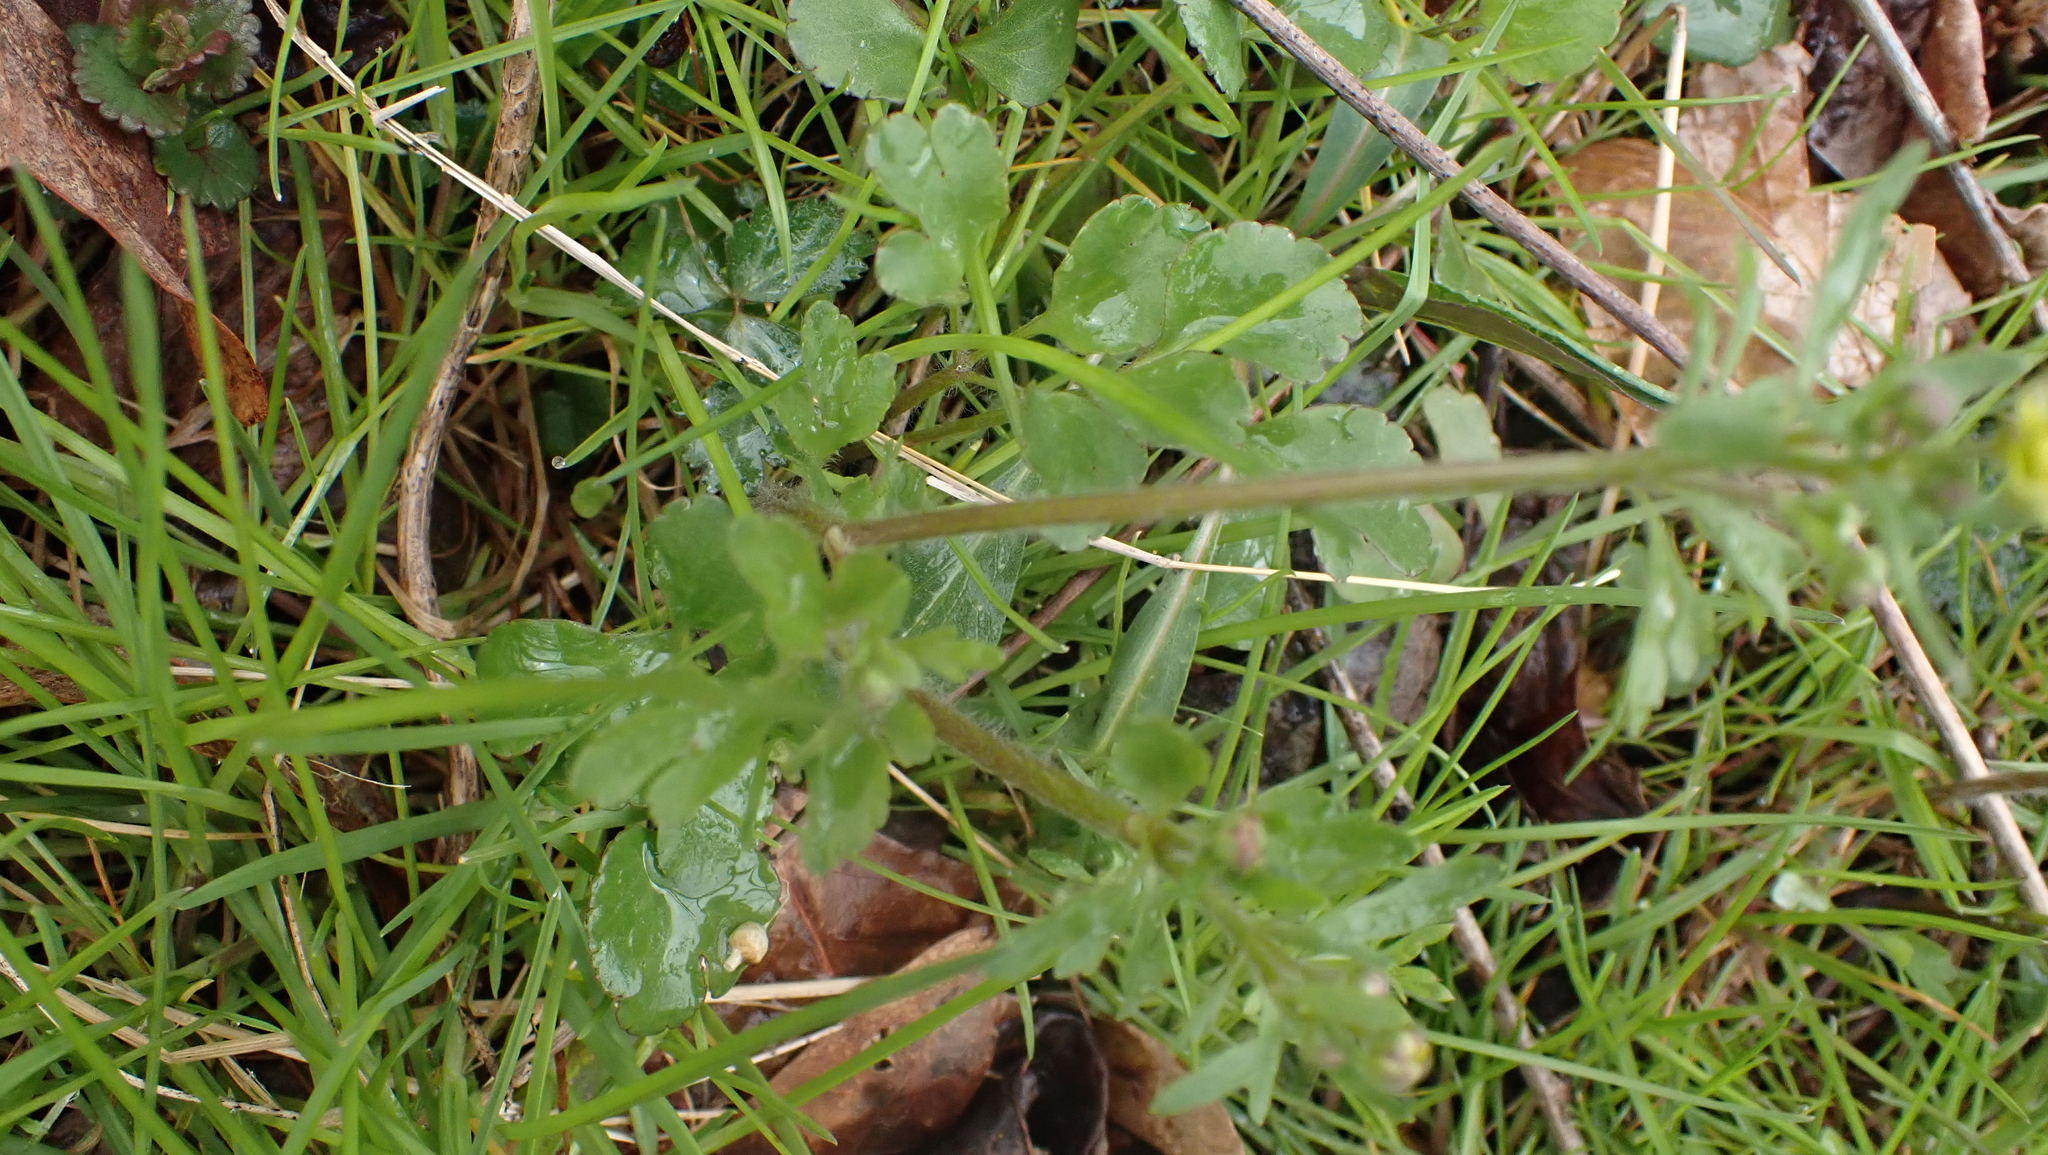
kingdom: Plantae
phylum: Tracheophyta
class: Magnoliopsida
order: Ranunculales
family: Ranunculaceae
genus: Ranunculus
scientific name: Ranunculus micranthus
